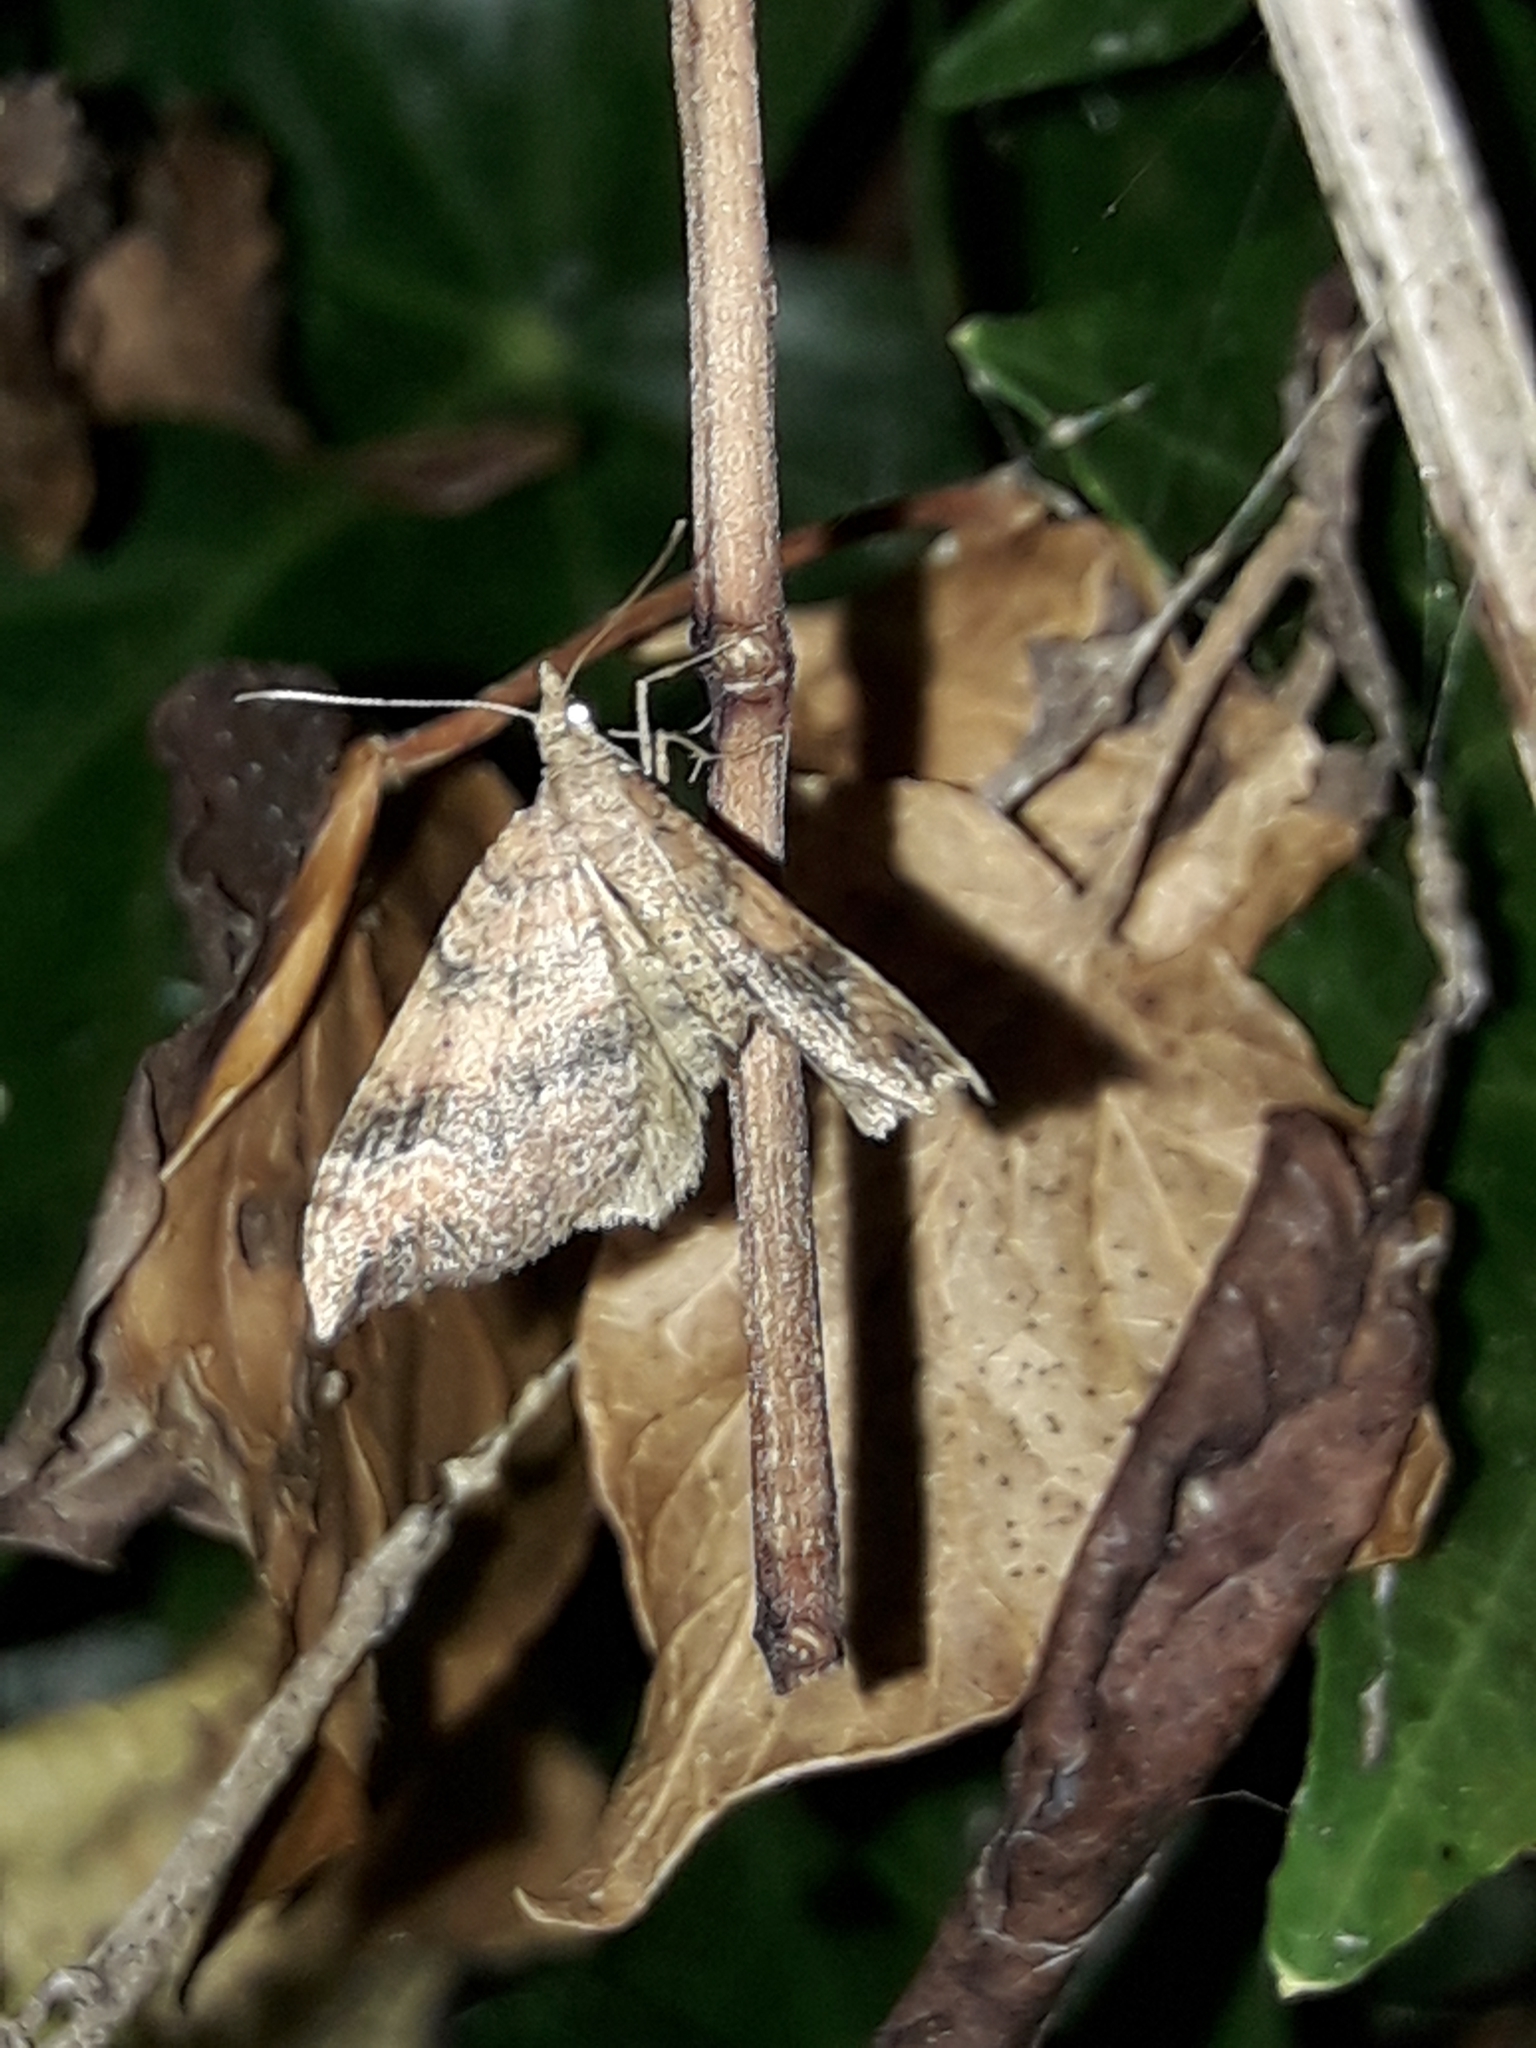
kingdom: Animalia
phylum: Arthropoda
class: Insecta
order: Lepidoptera
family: Geometridae
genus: Homodotis
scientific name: Homodotis megaspilata
